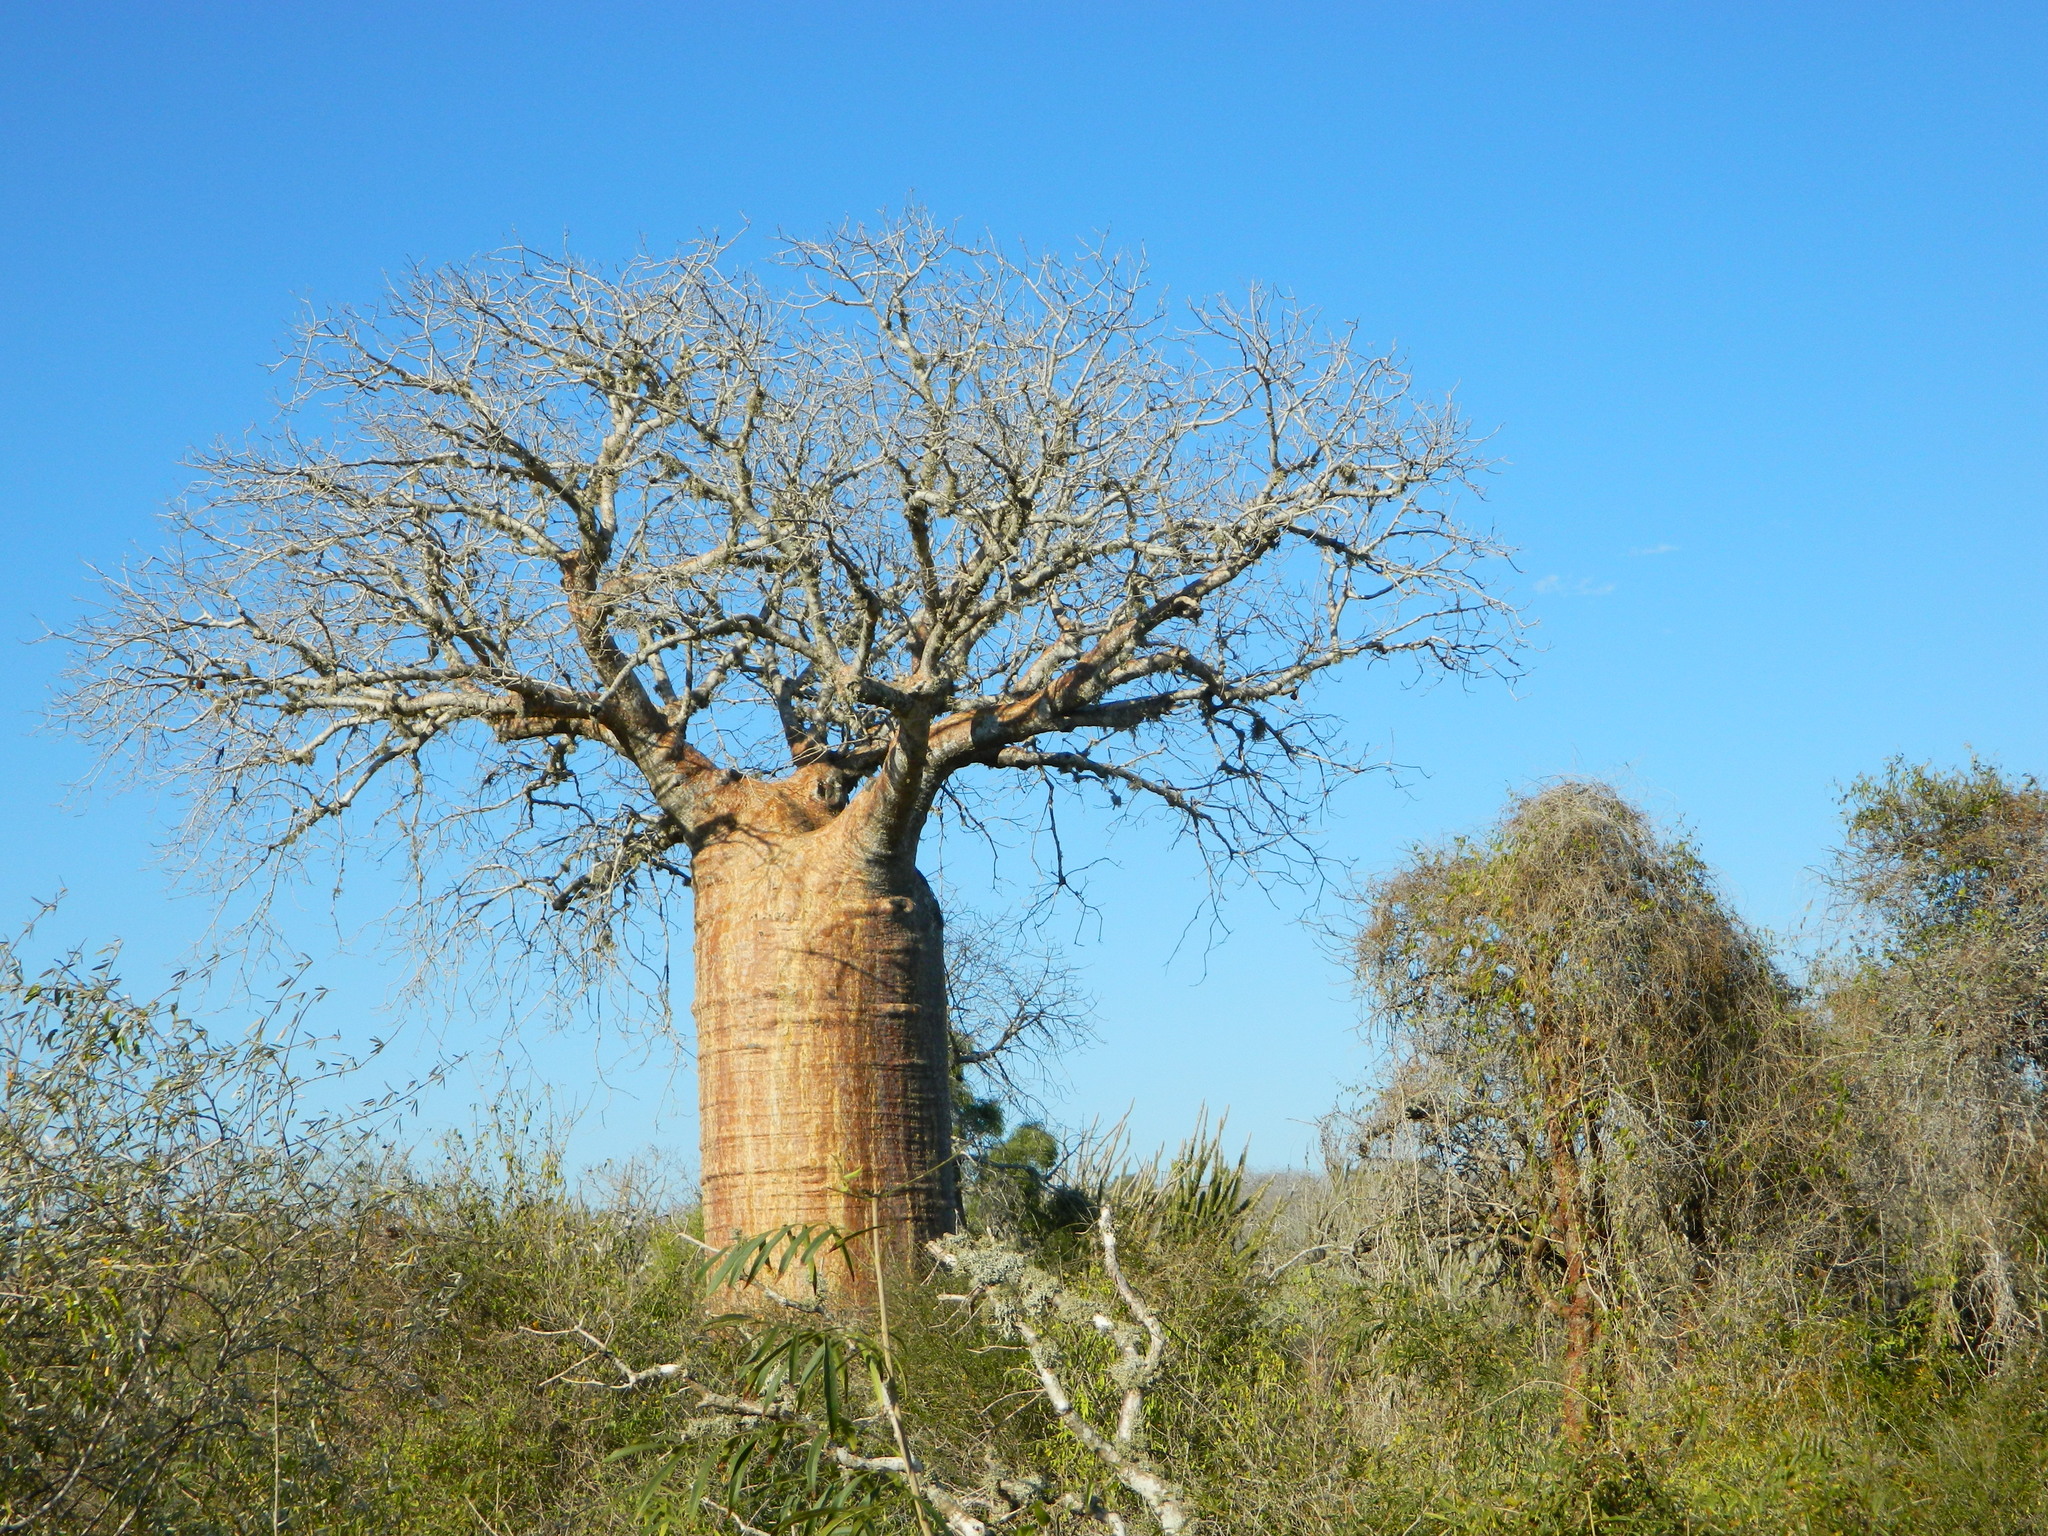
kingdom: Plantae
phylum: Tracheophyta
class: Magnoliopsida
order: Malvales
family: Malvaceae
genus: Adansonia
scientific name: Adansonia rubrostipa
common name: Fony baobab
